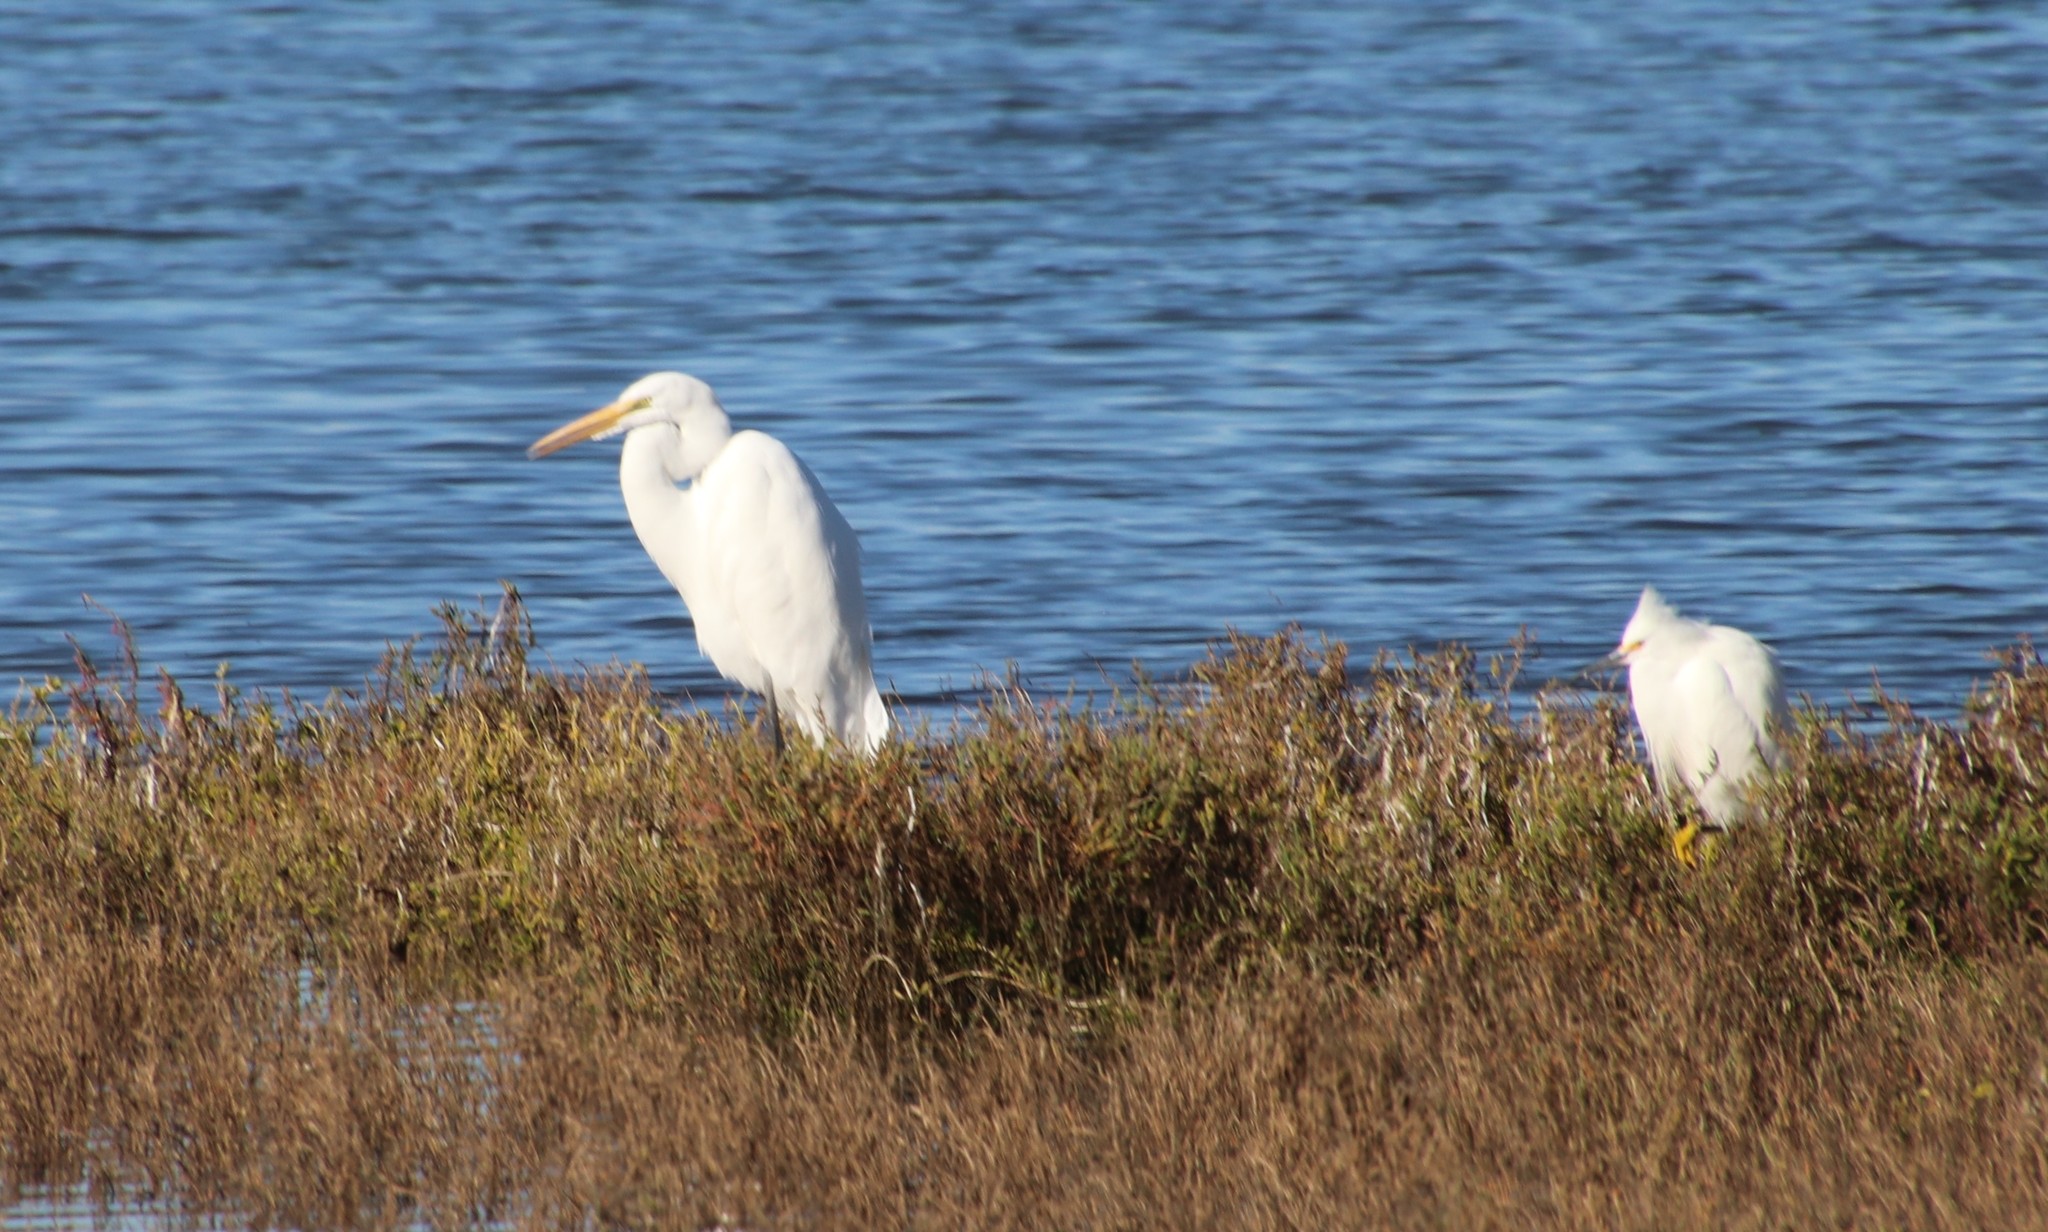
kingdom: Animalia
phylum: Chordata
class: Aves
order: Pelecaniformes
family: Ardeidae
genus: Ardea
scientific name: Ardea alba
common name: Great egret
